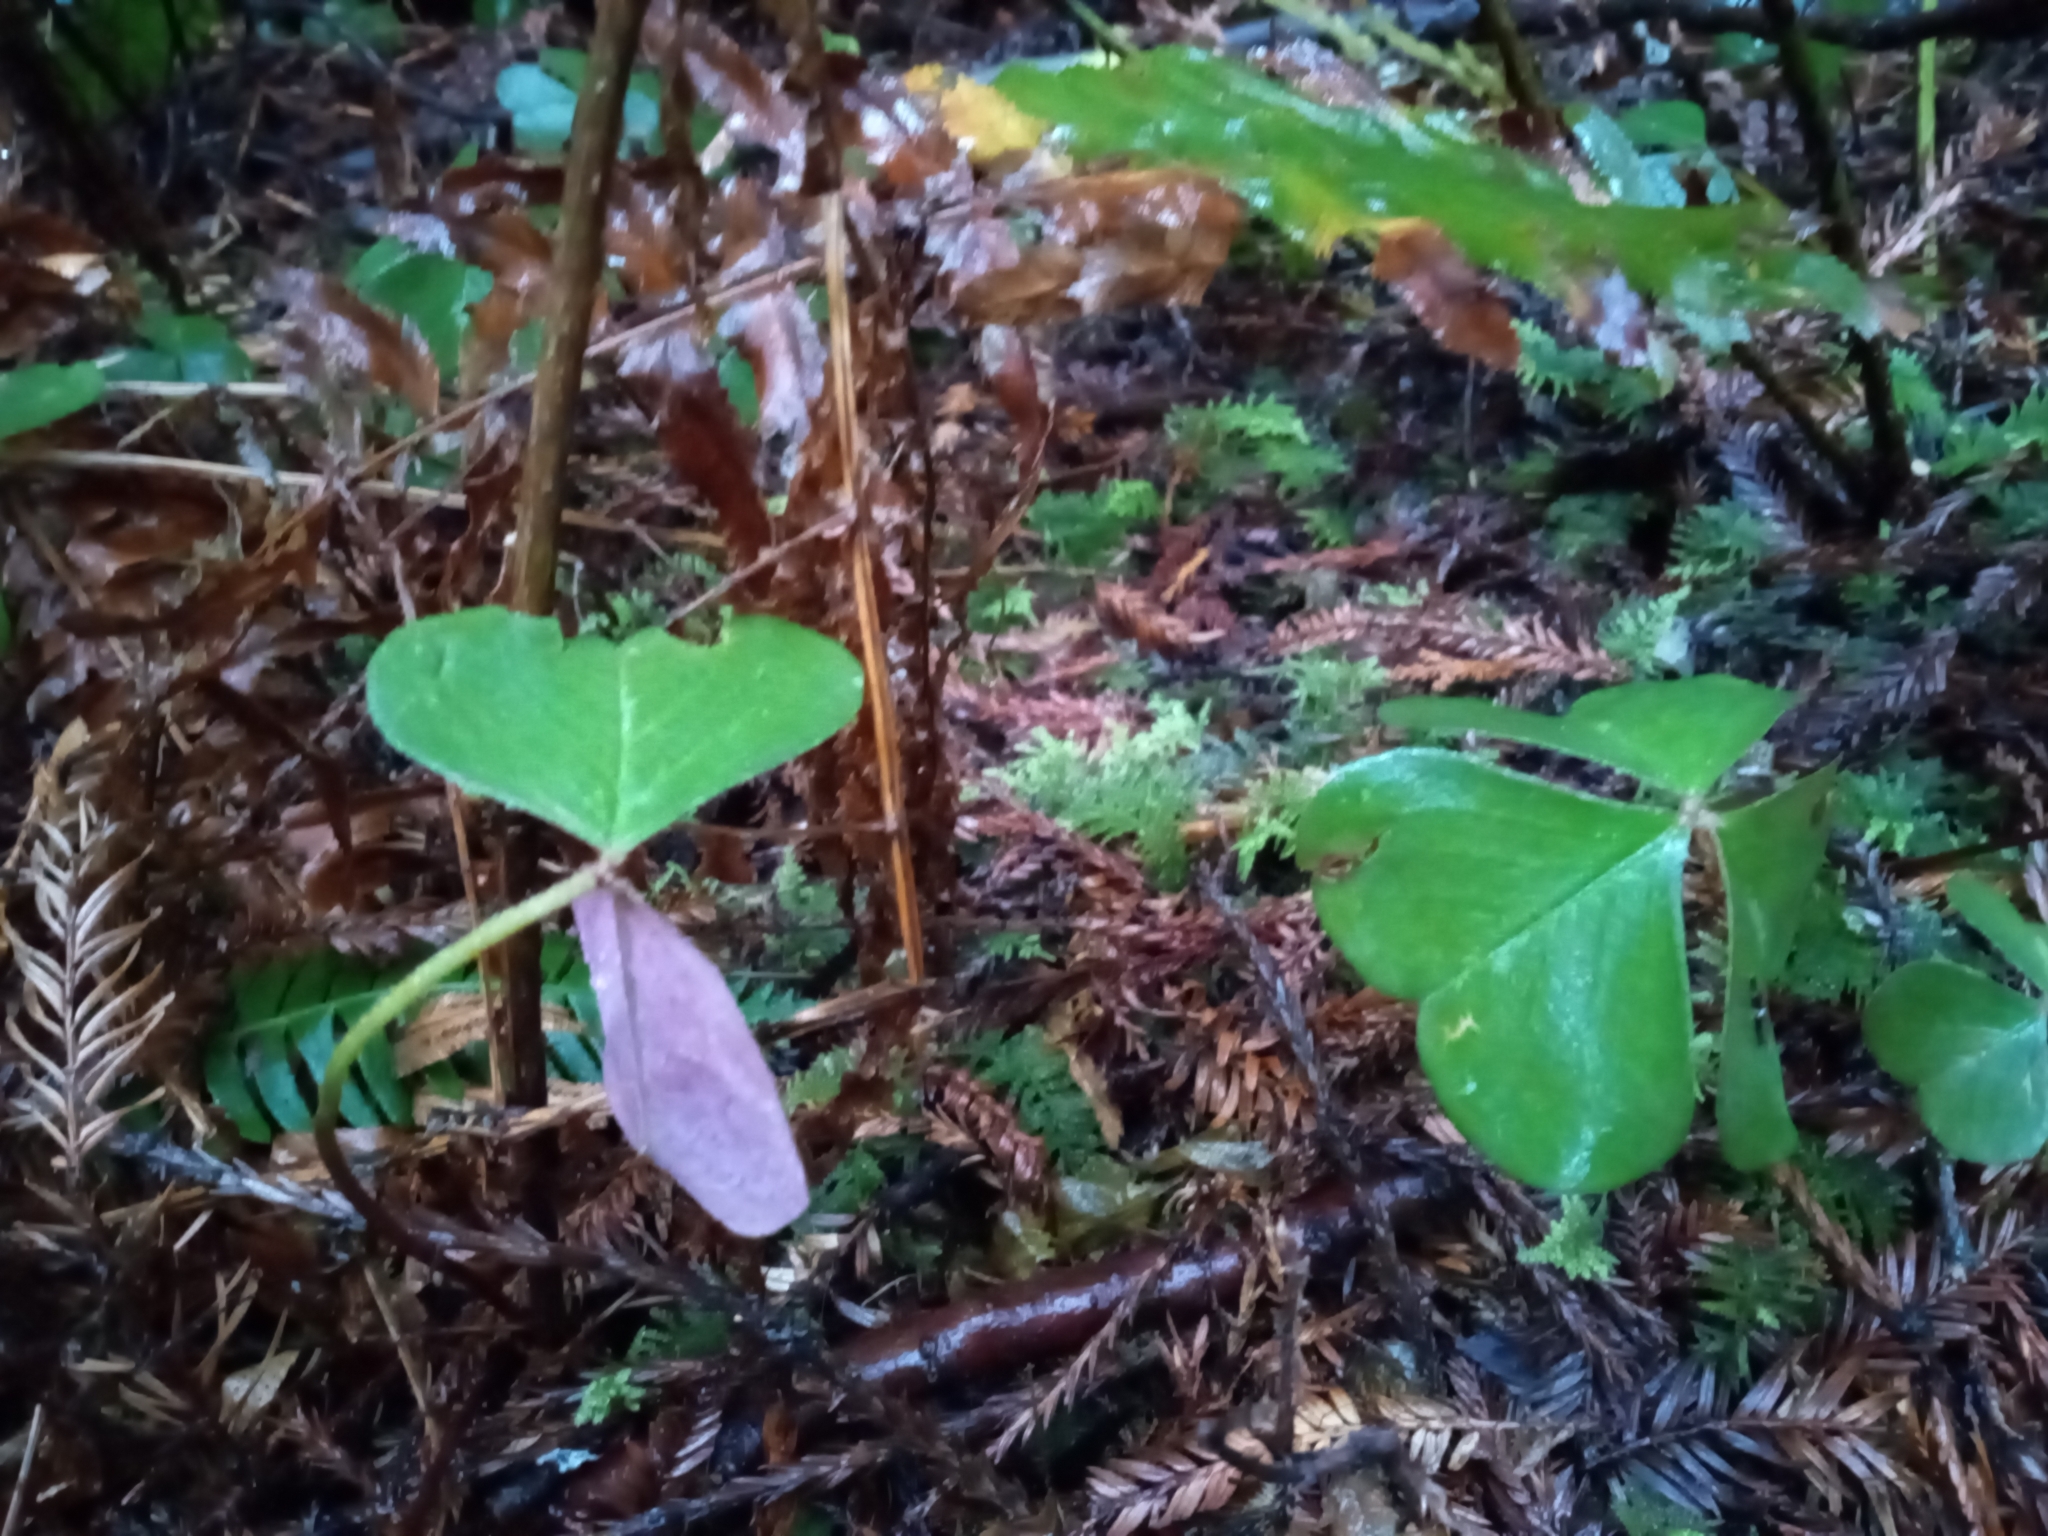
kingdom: Plantae
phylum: Tracheophyta
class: Magnoliopsida
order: Oxalidales
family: Oxalidaceae
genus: Oxalis
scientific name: Oxalis oregana
